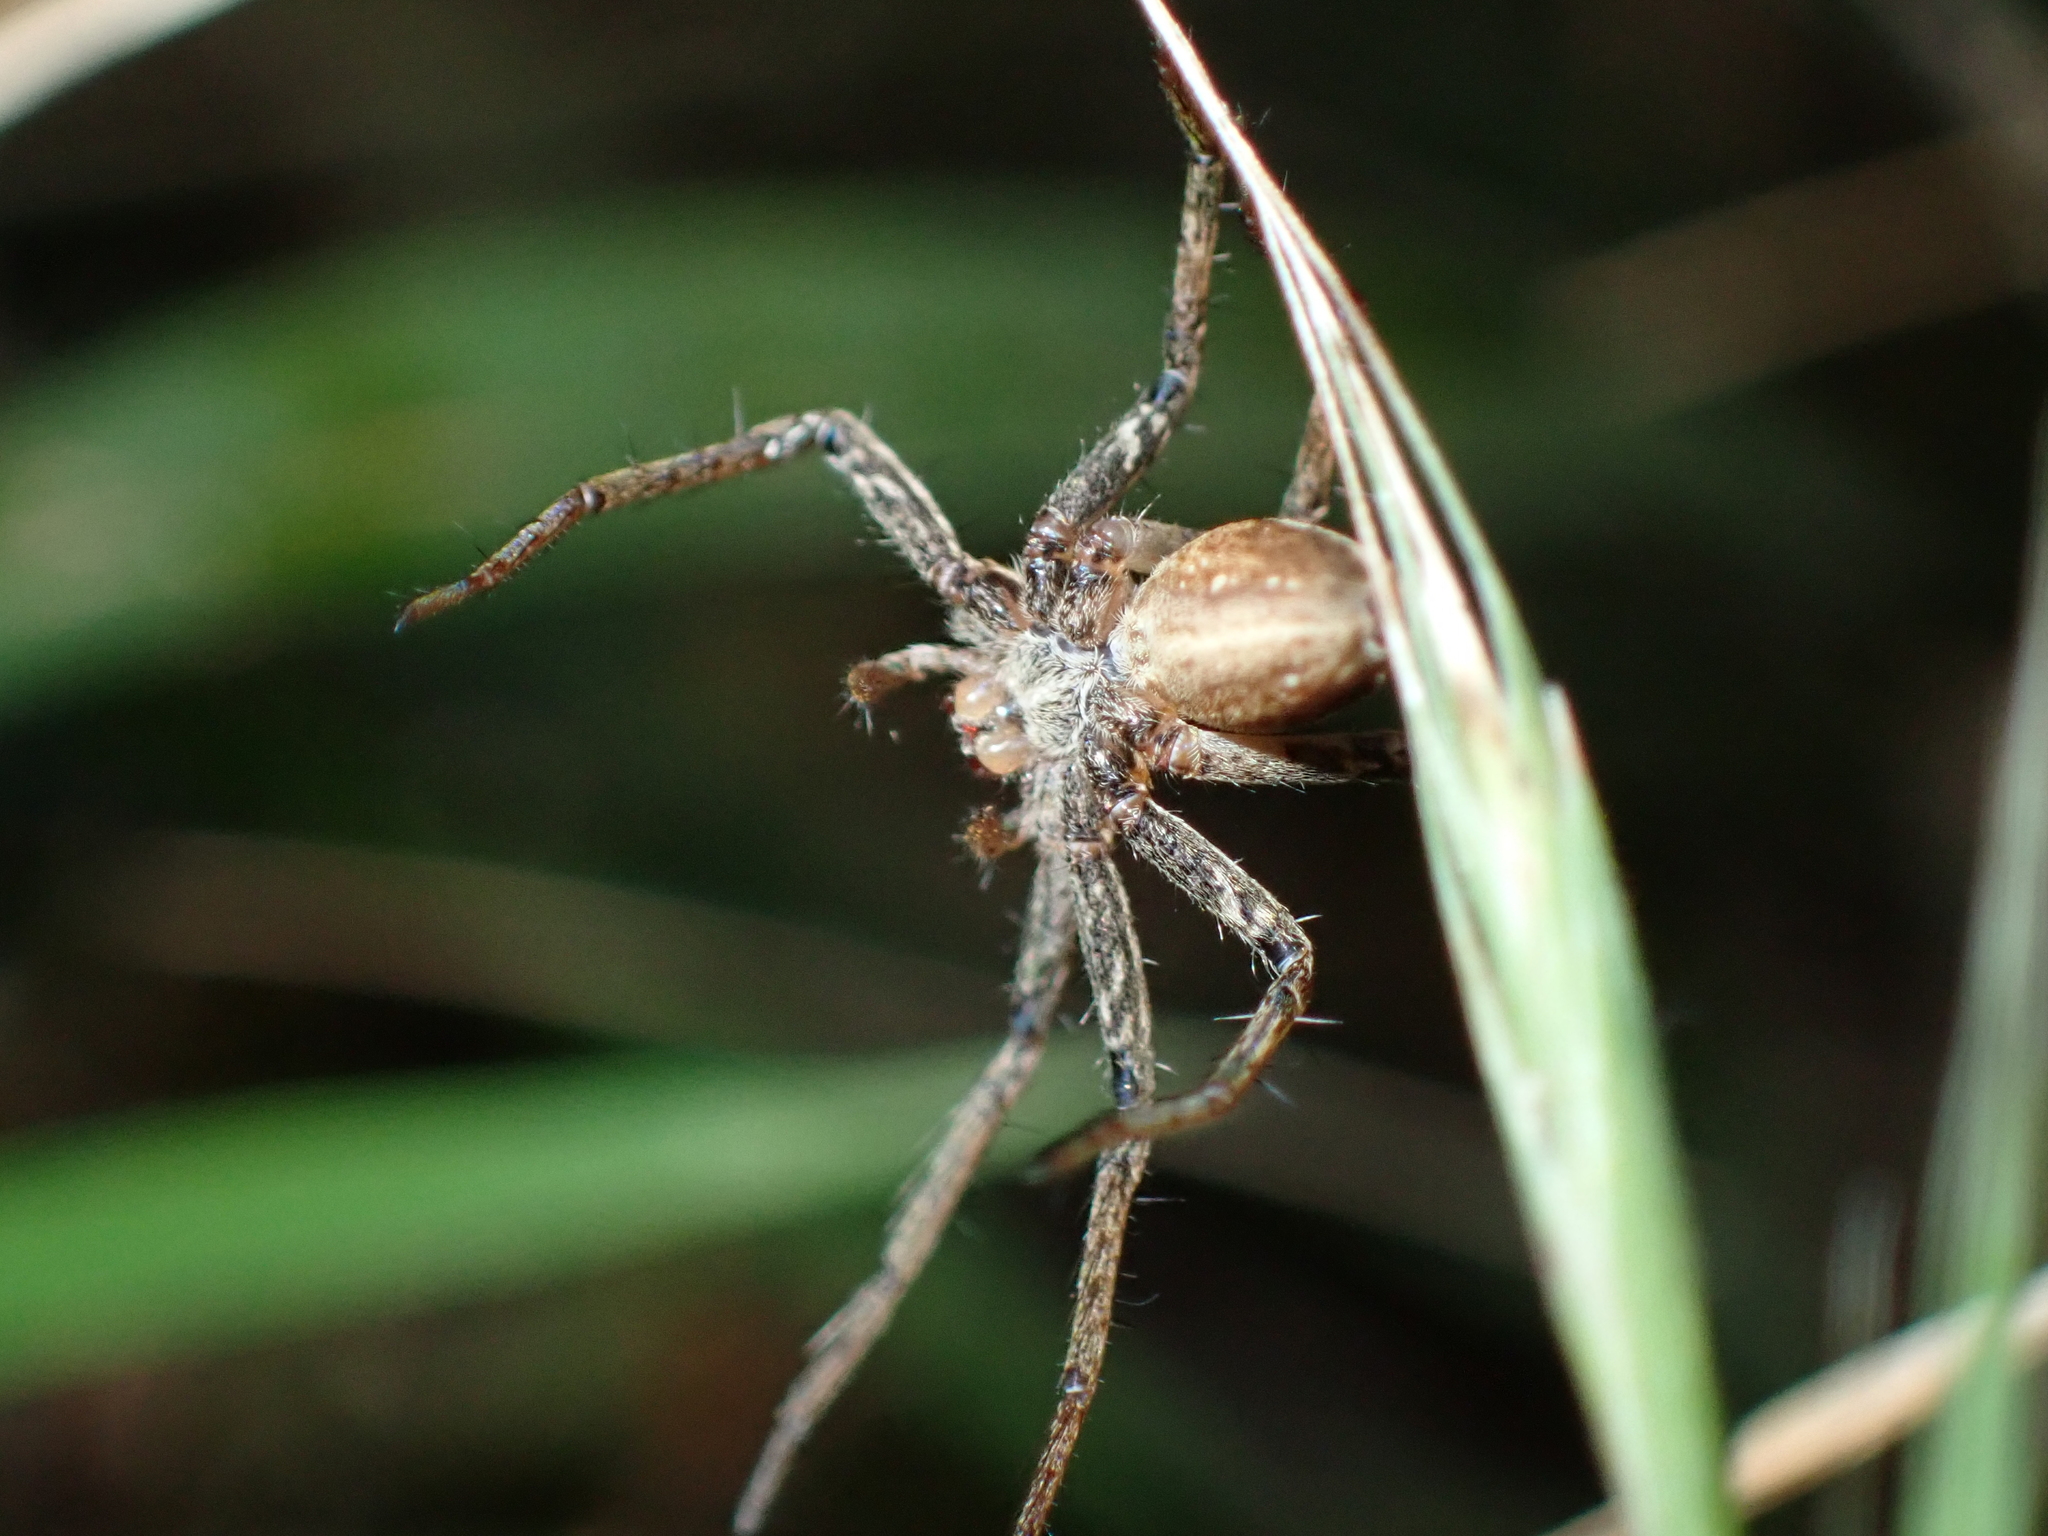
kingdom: Animalia
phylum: Arthropoda
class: Arachnida
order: Araneae
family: Pisauridae
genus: Pisaura
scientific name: Pisaura mirabilis
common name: Tent spider
